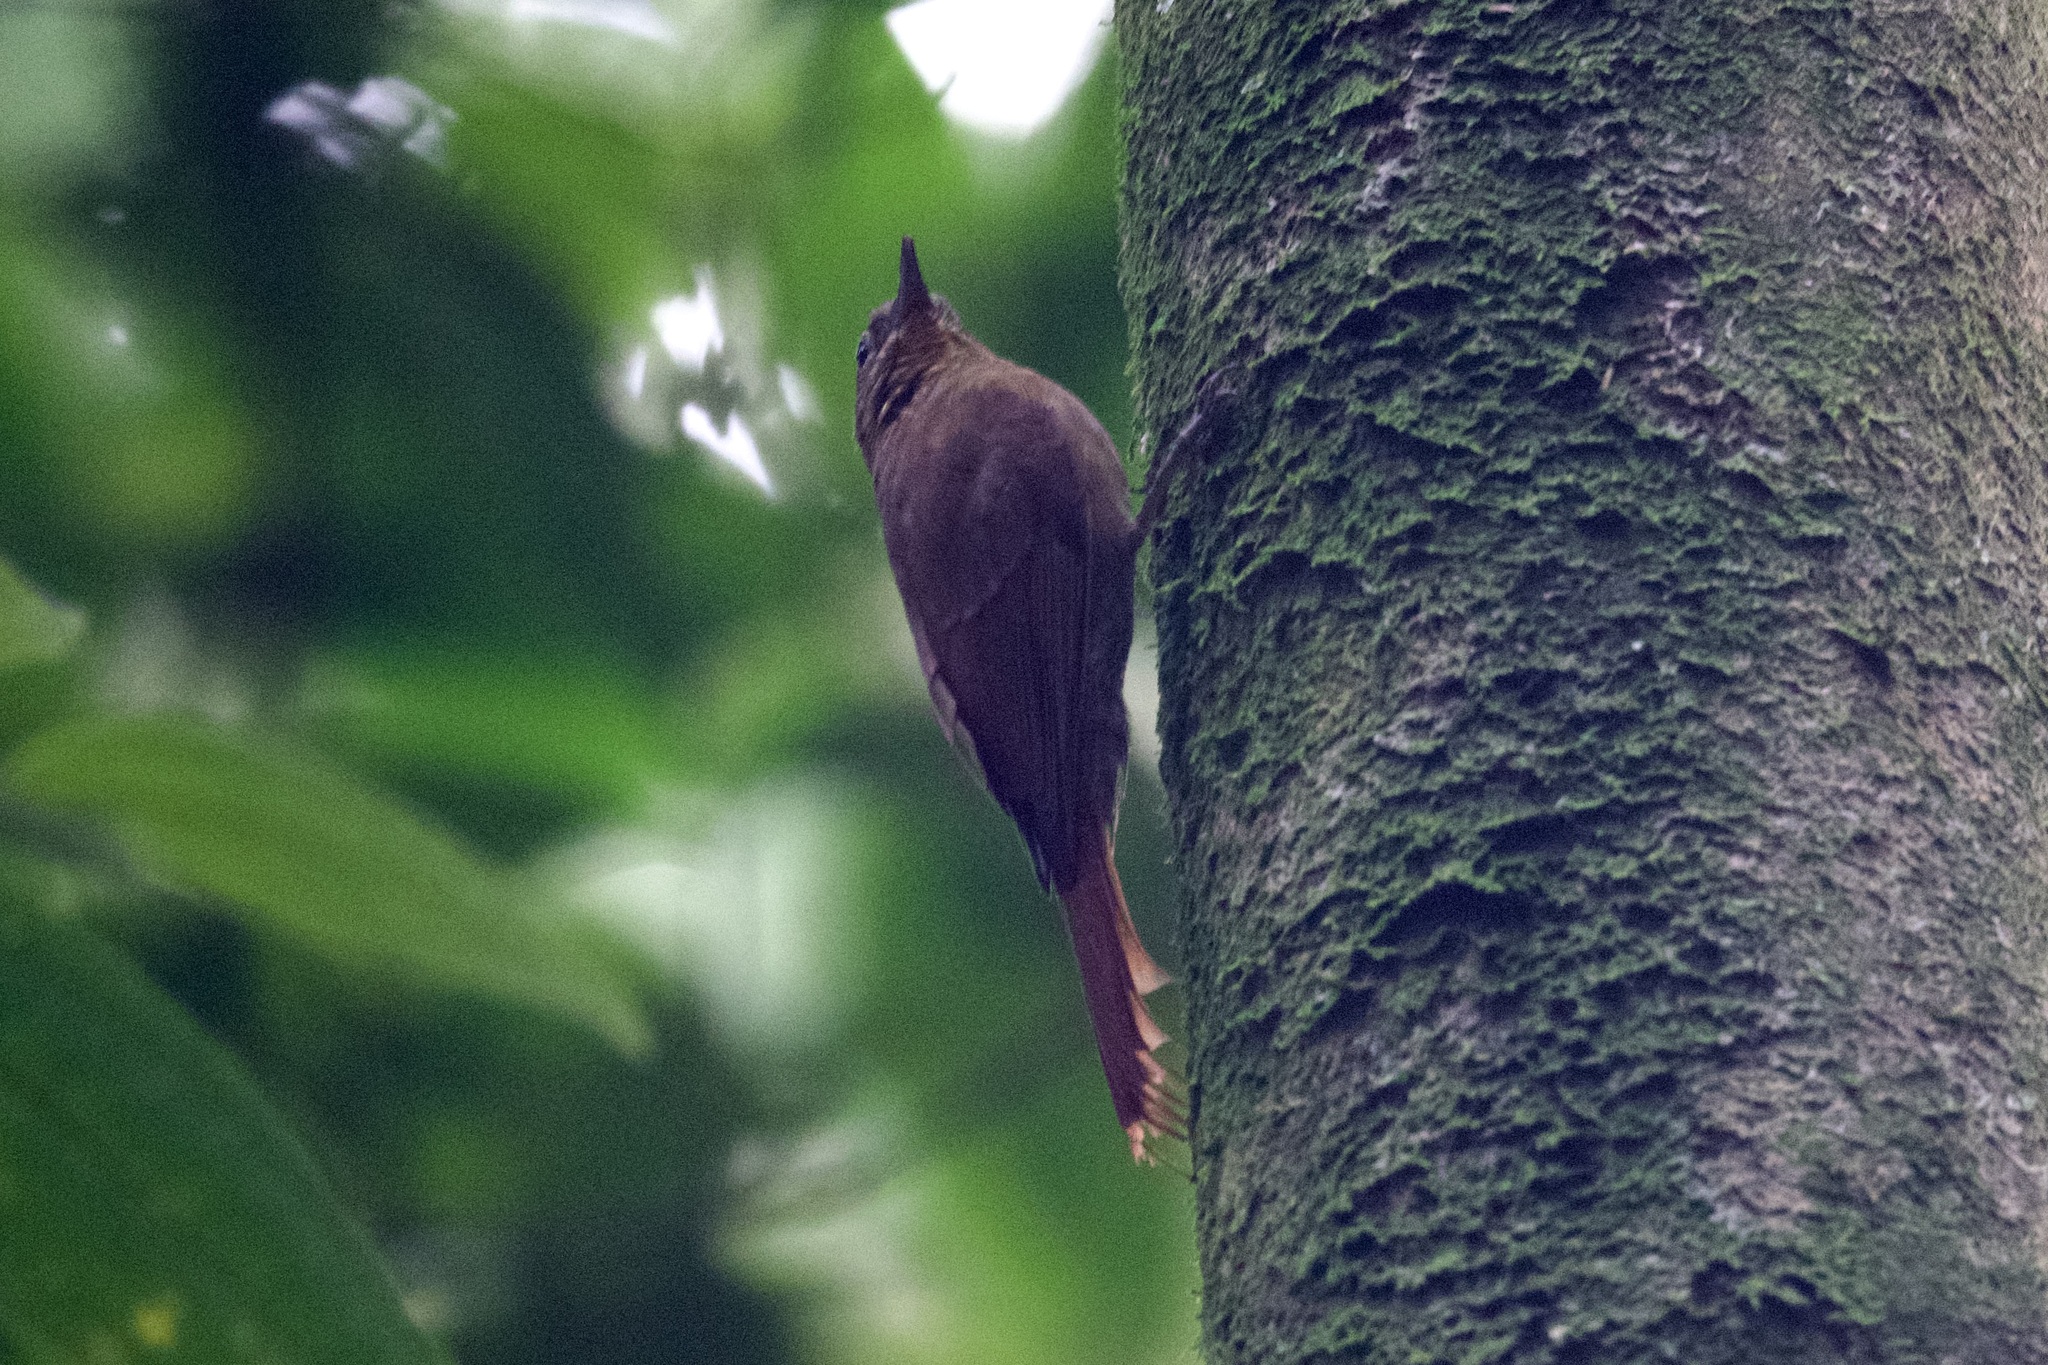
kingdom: Animalia
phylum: Chordata
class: Aves
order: Passeriformes
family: Furnariidae
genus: Glyphorynchus
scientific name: Glyphorynchus spirurus
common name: Wedge-billed woodcreeper
